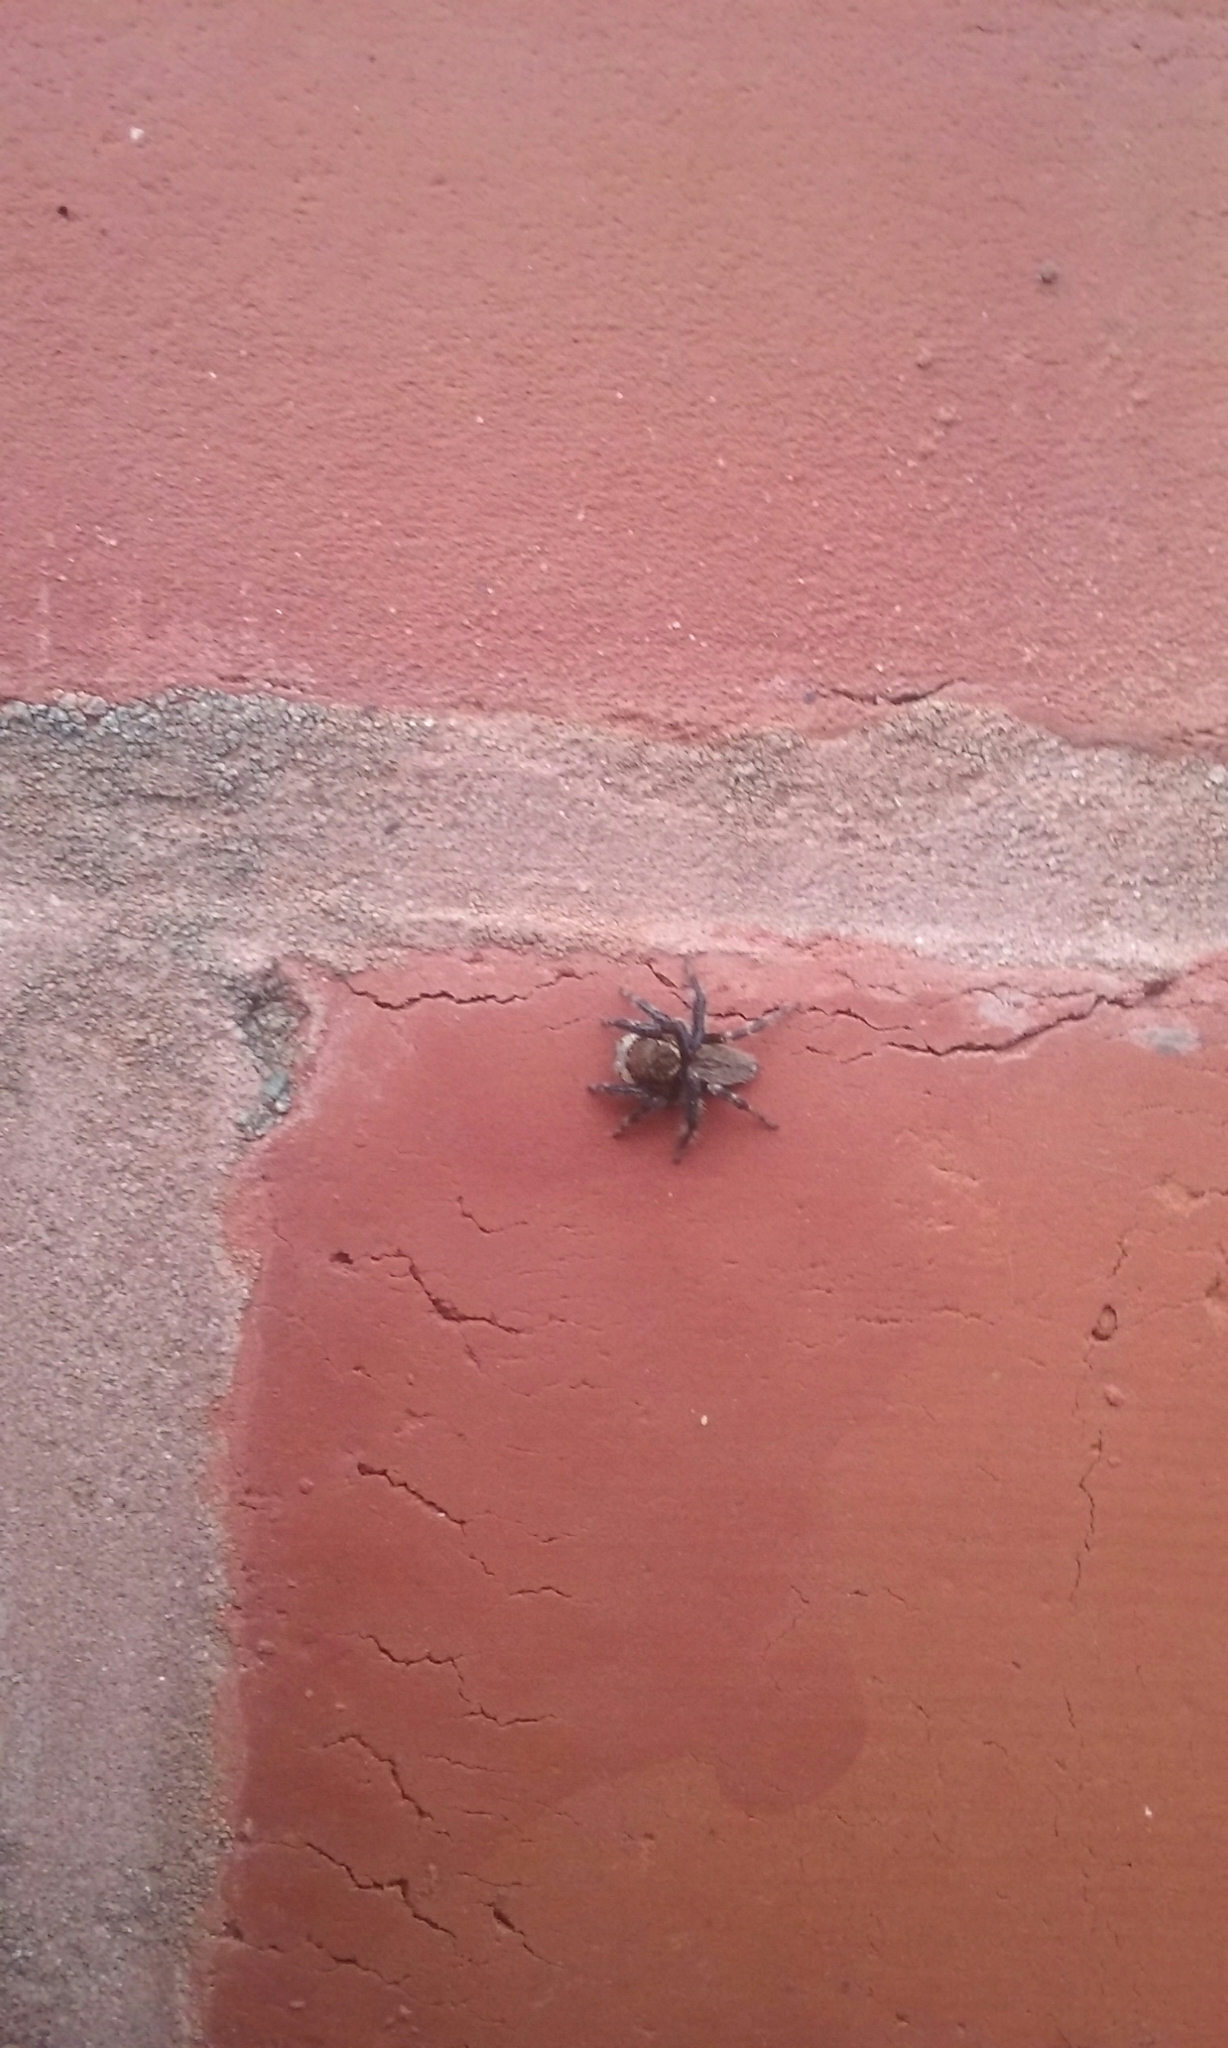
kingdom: Animalia
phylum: Arthropoda
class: Arachnida
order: Araneae
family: Salticidae
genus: Maratus
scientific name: Maratus griseus
